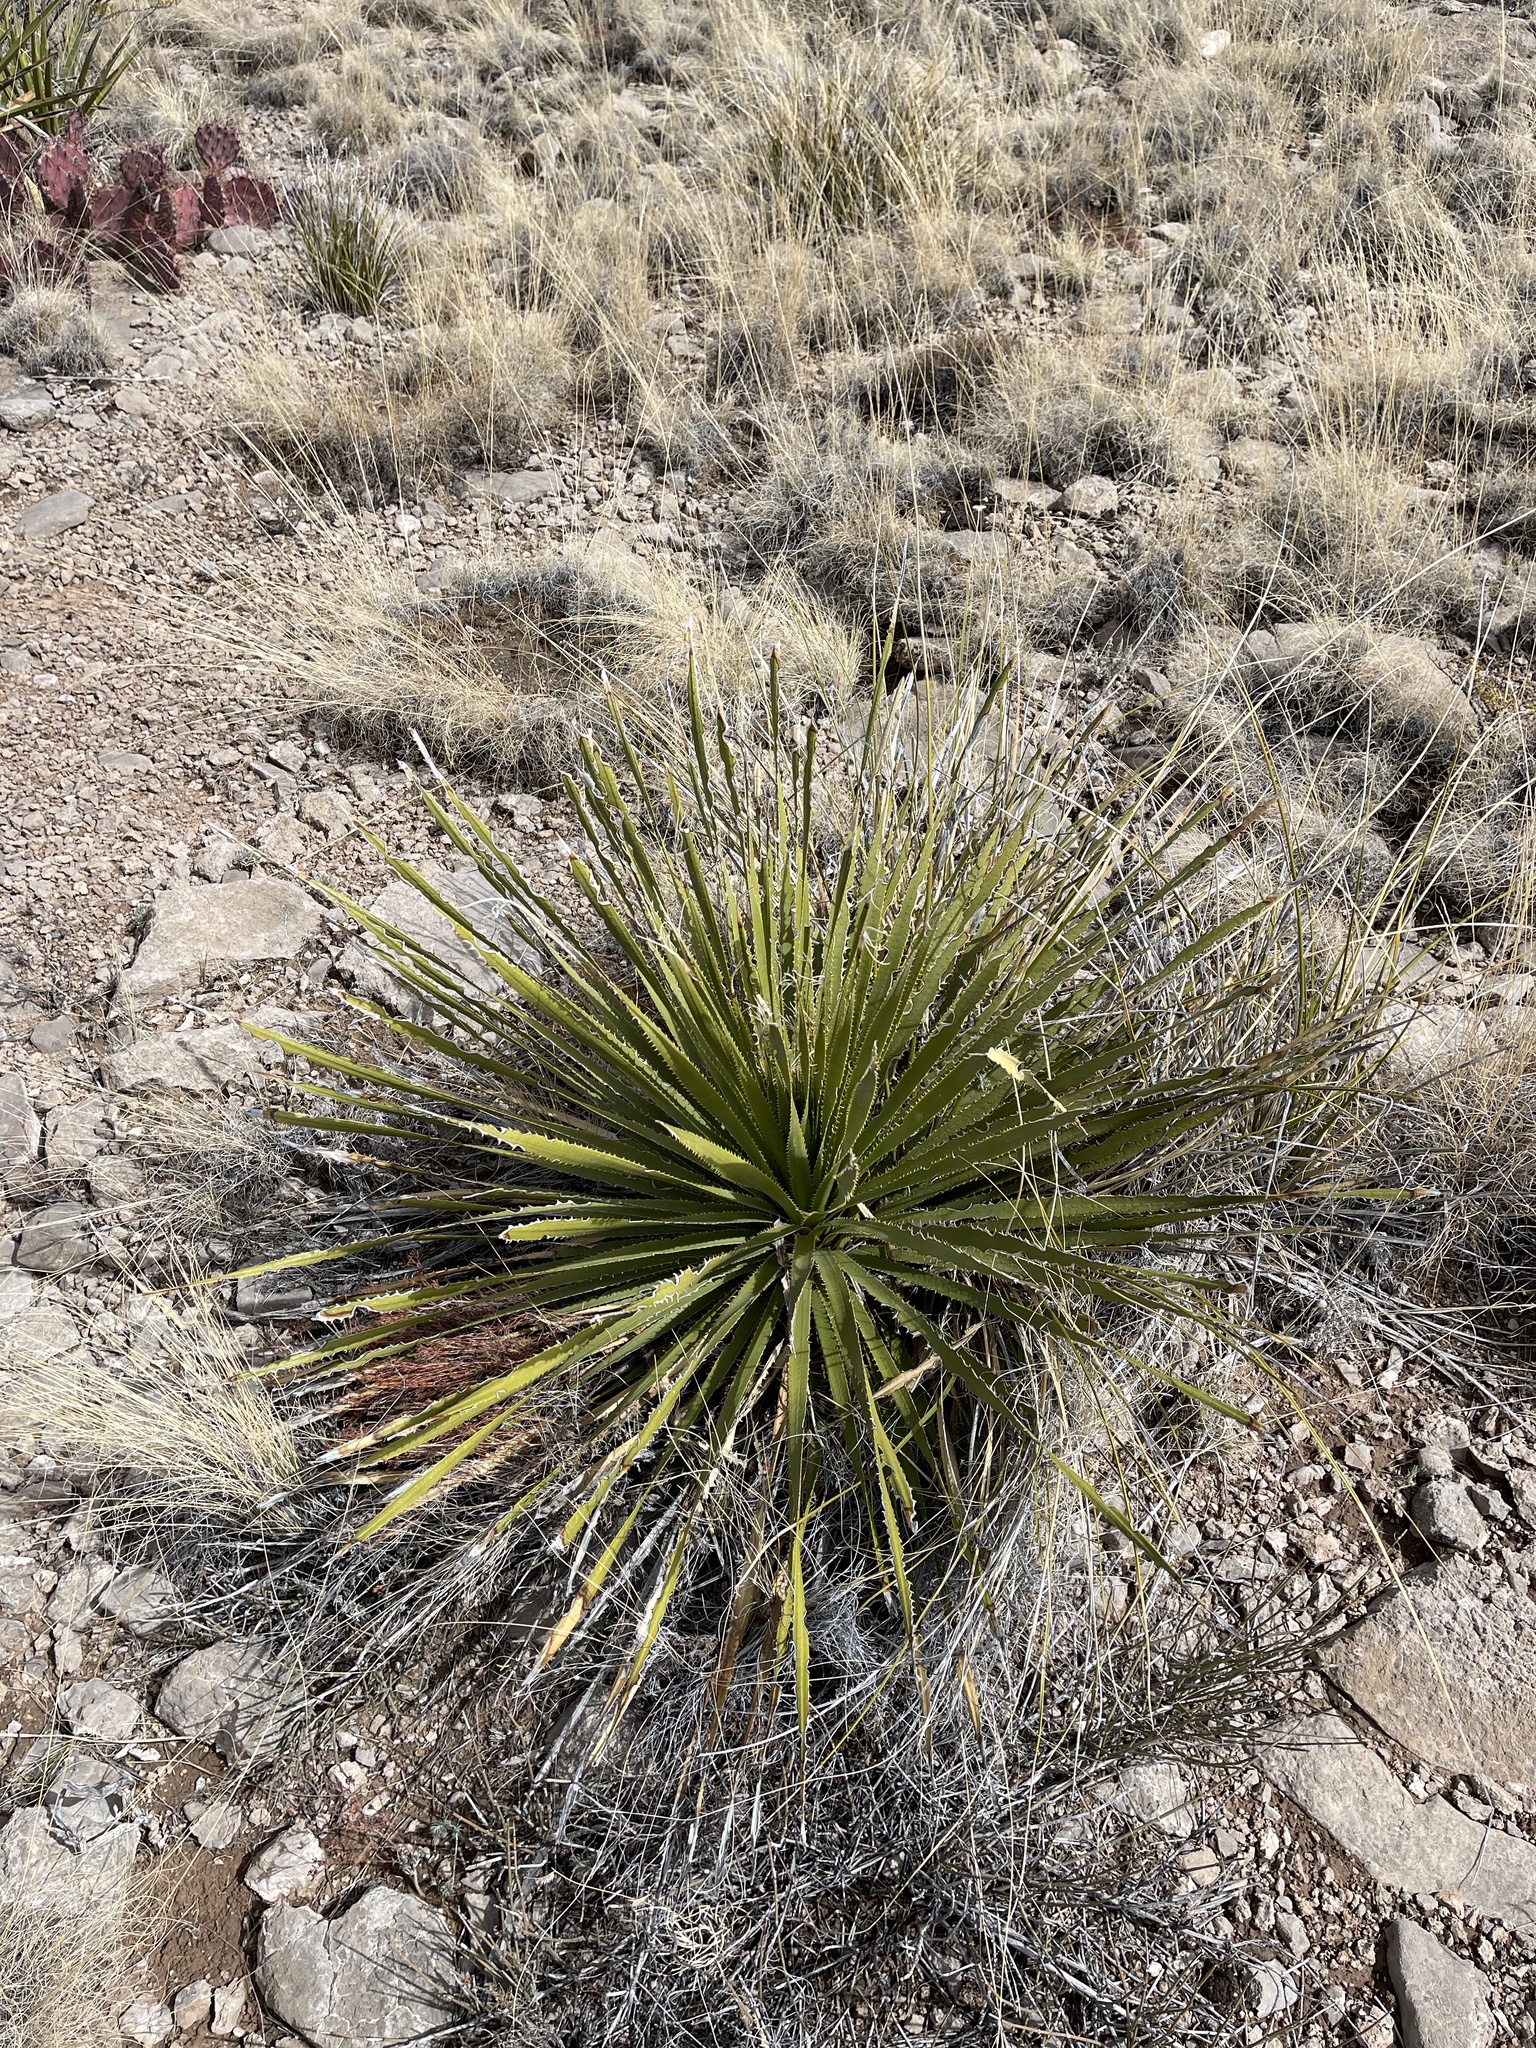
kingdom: Plantae
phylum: Tracheophyta
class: Liliopsida
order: Asparagales
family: Asparagaceae
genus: Dasylirion
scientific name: Dasylirion wheeleri
